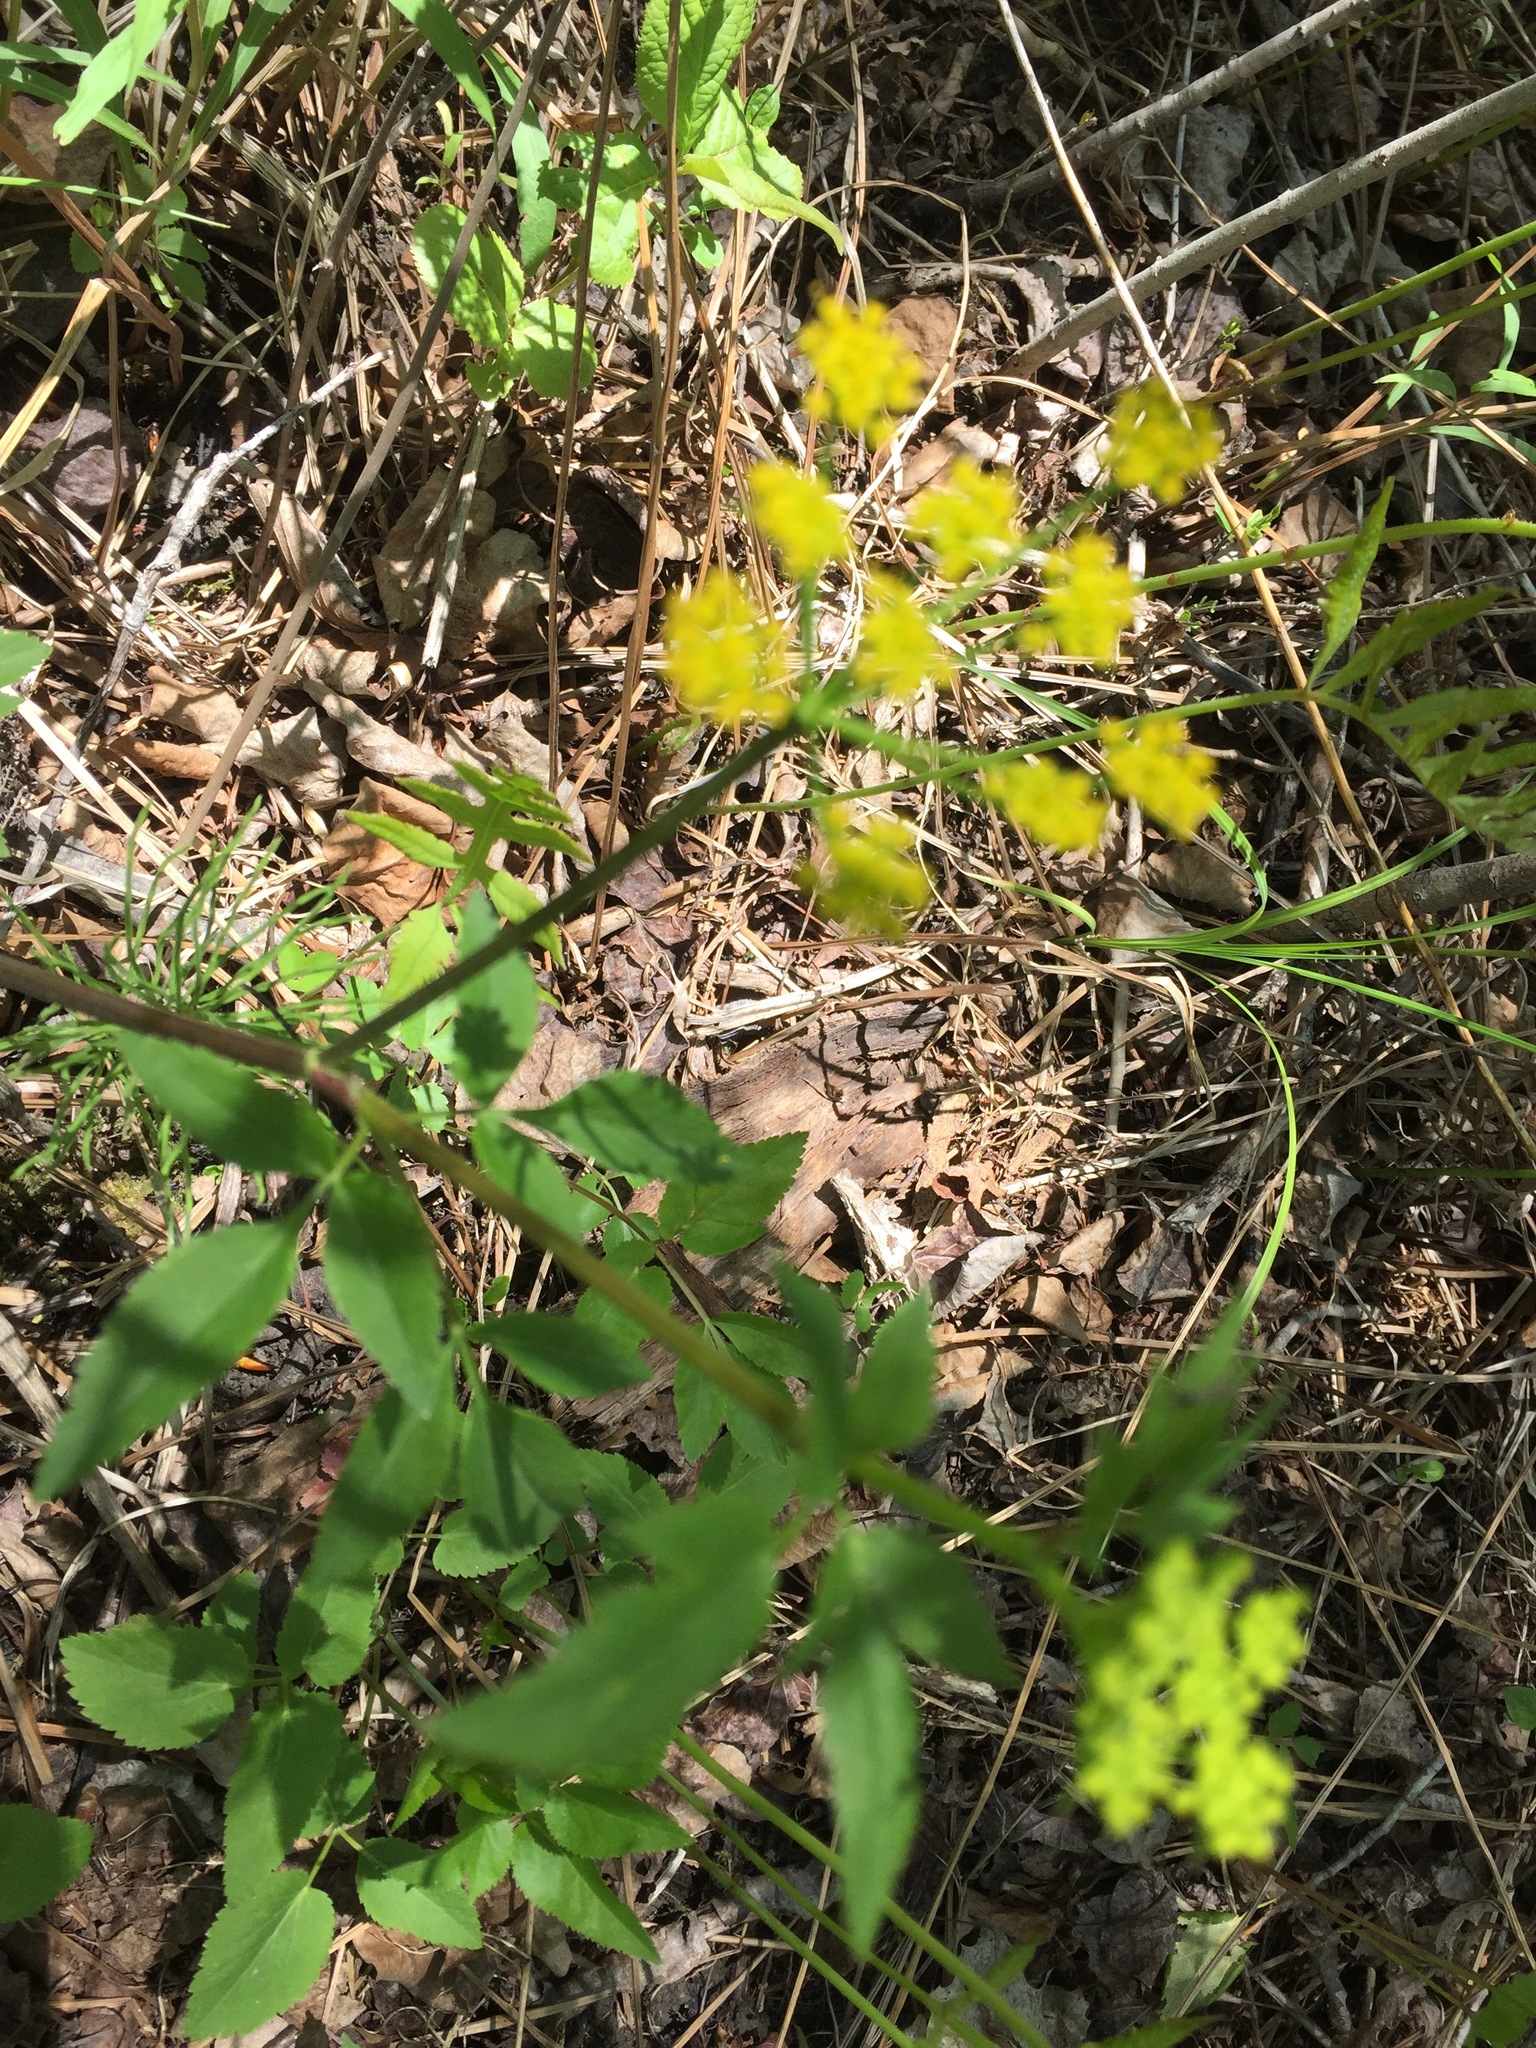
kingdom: Plantae
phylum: Tracheophyta
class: Magnoliopsida
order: Apiales
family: Apiaceae
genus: Zizia
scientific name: Zizia aurea
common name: Golden alexanders
